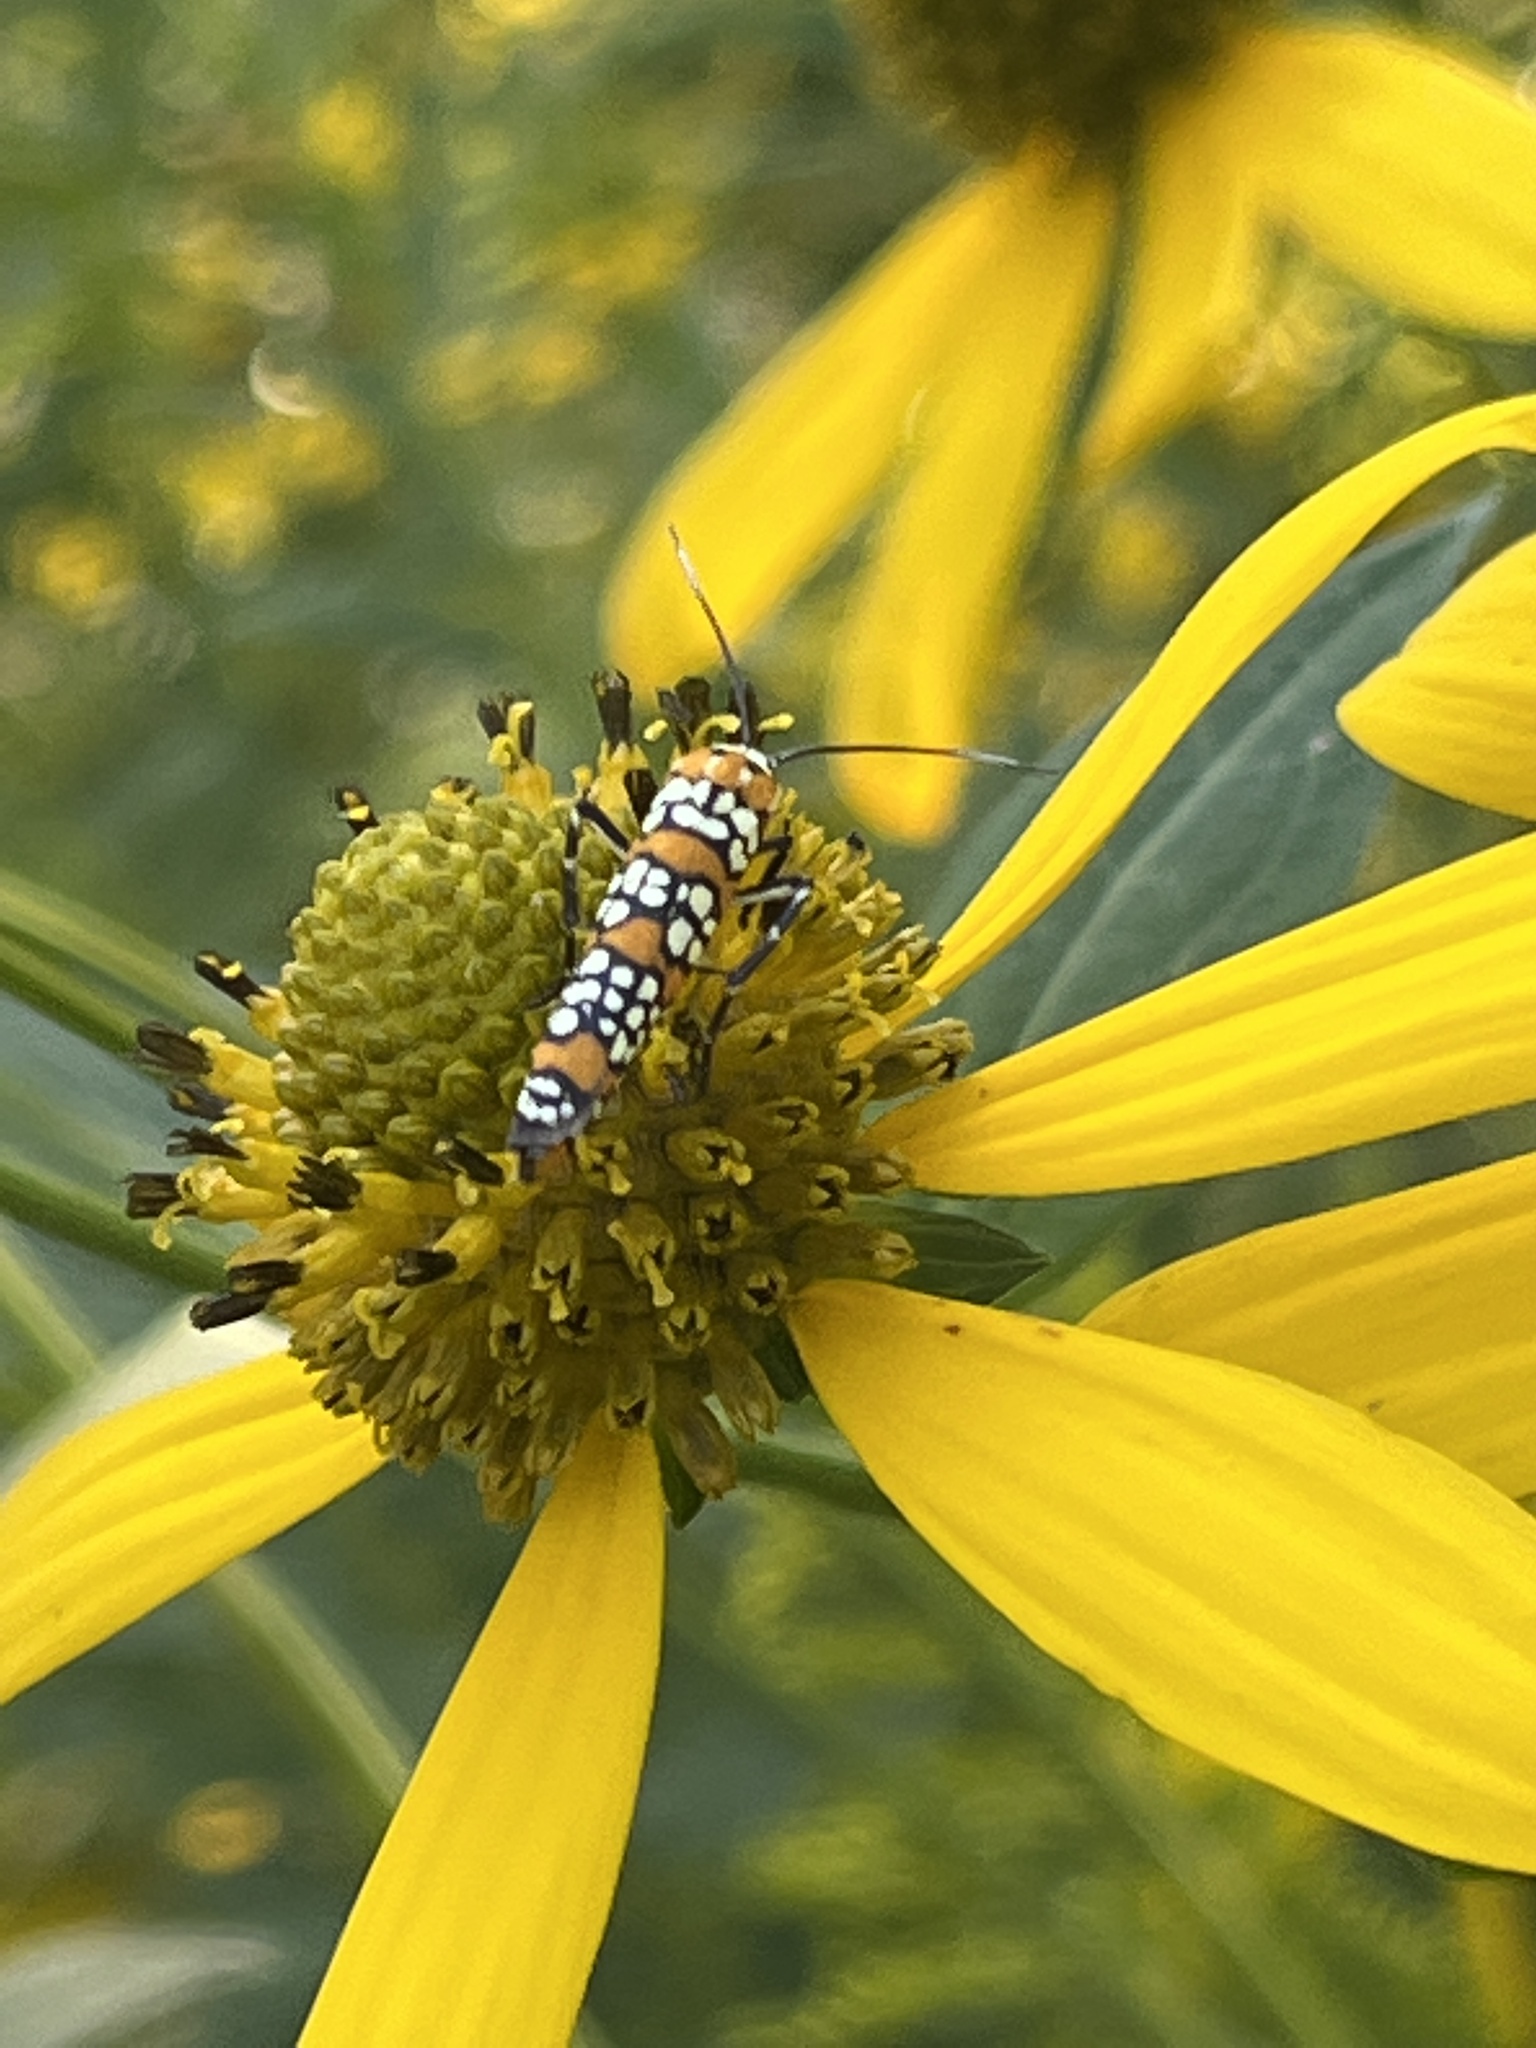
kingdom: Animalia
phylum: Arthropoda
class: Insecta
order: Lepidoptera
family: Attevidae
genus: Atteva
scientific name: Atteva punctella
